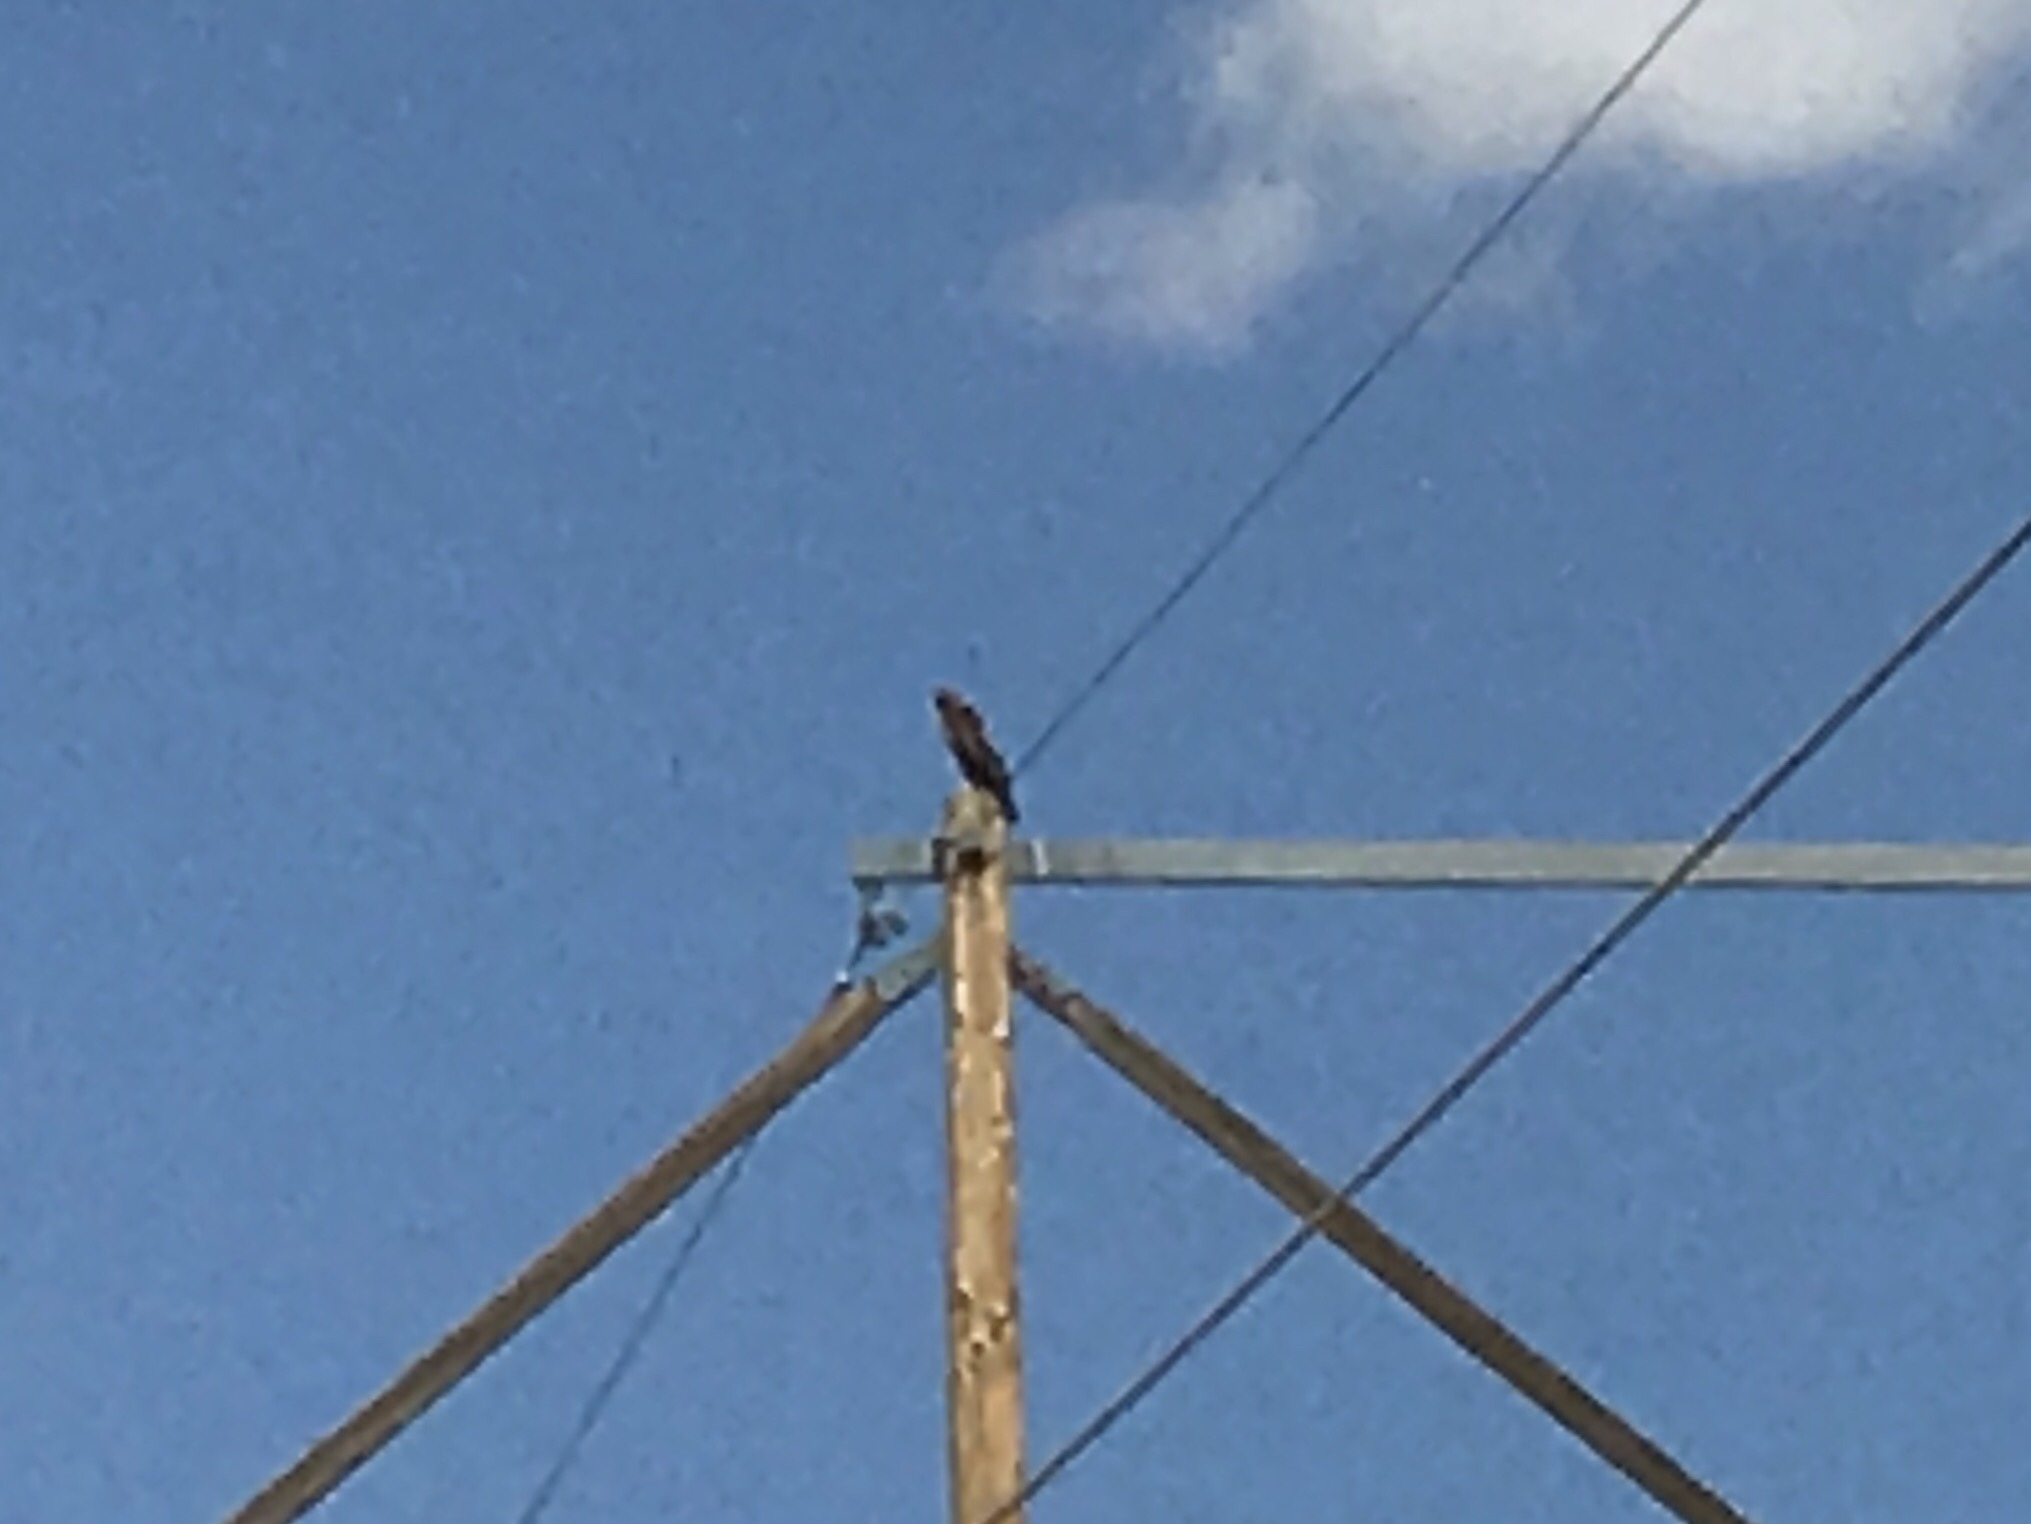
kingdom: Animalia
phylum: Chordata
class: Aves
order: Accipitriformes
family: Accipitridae
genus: Buteo
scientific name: Buteo jamaicensis
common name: Red-tailed hawk
